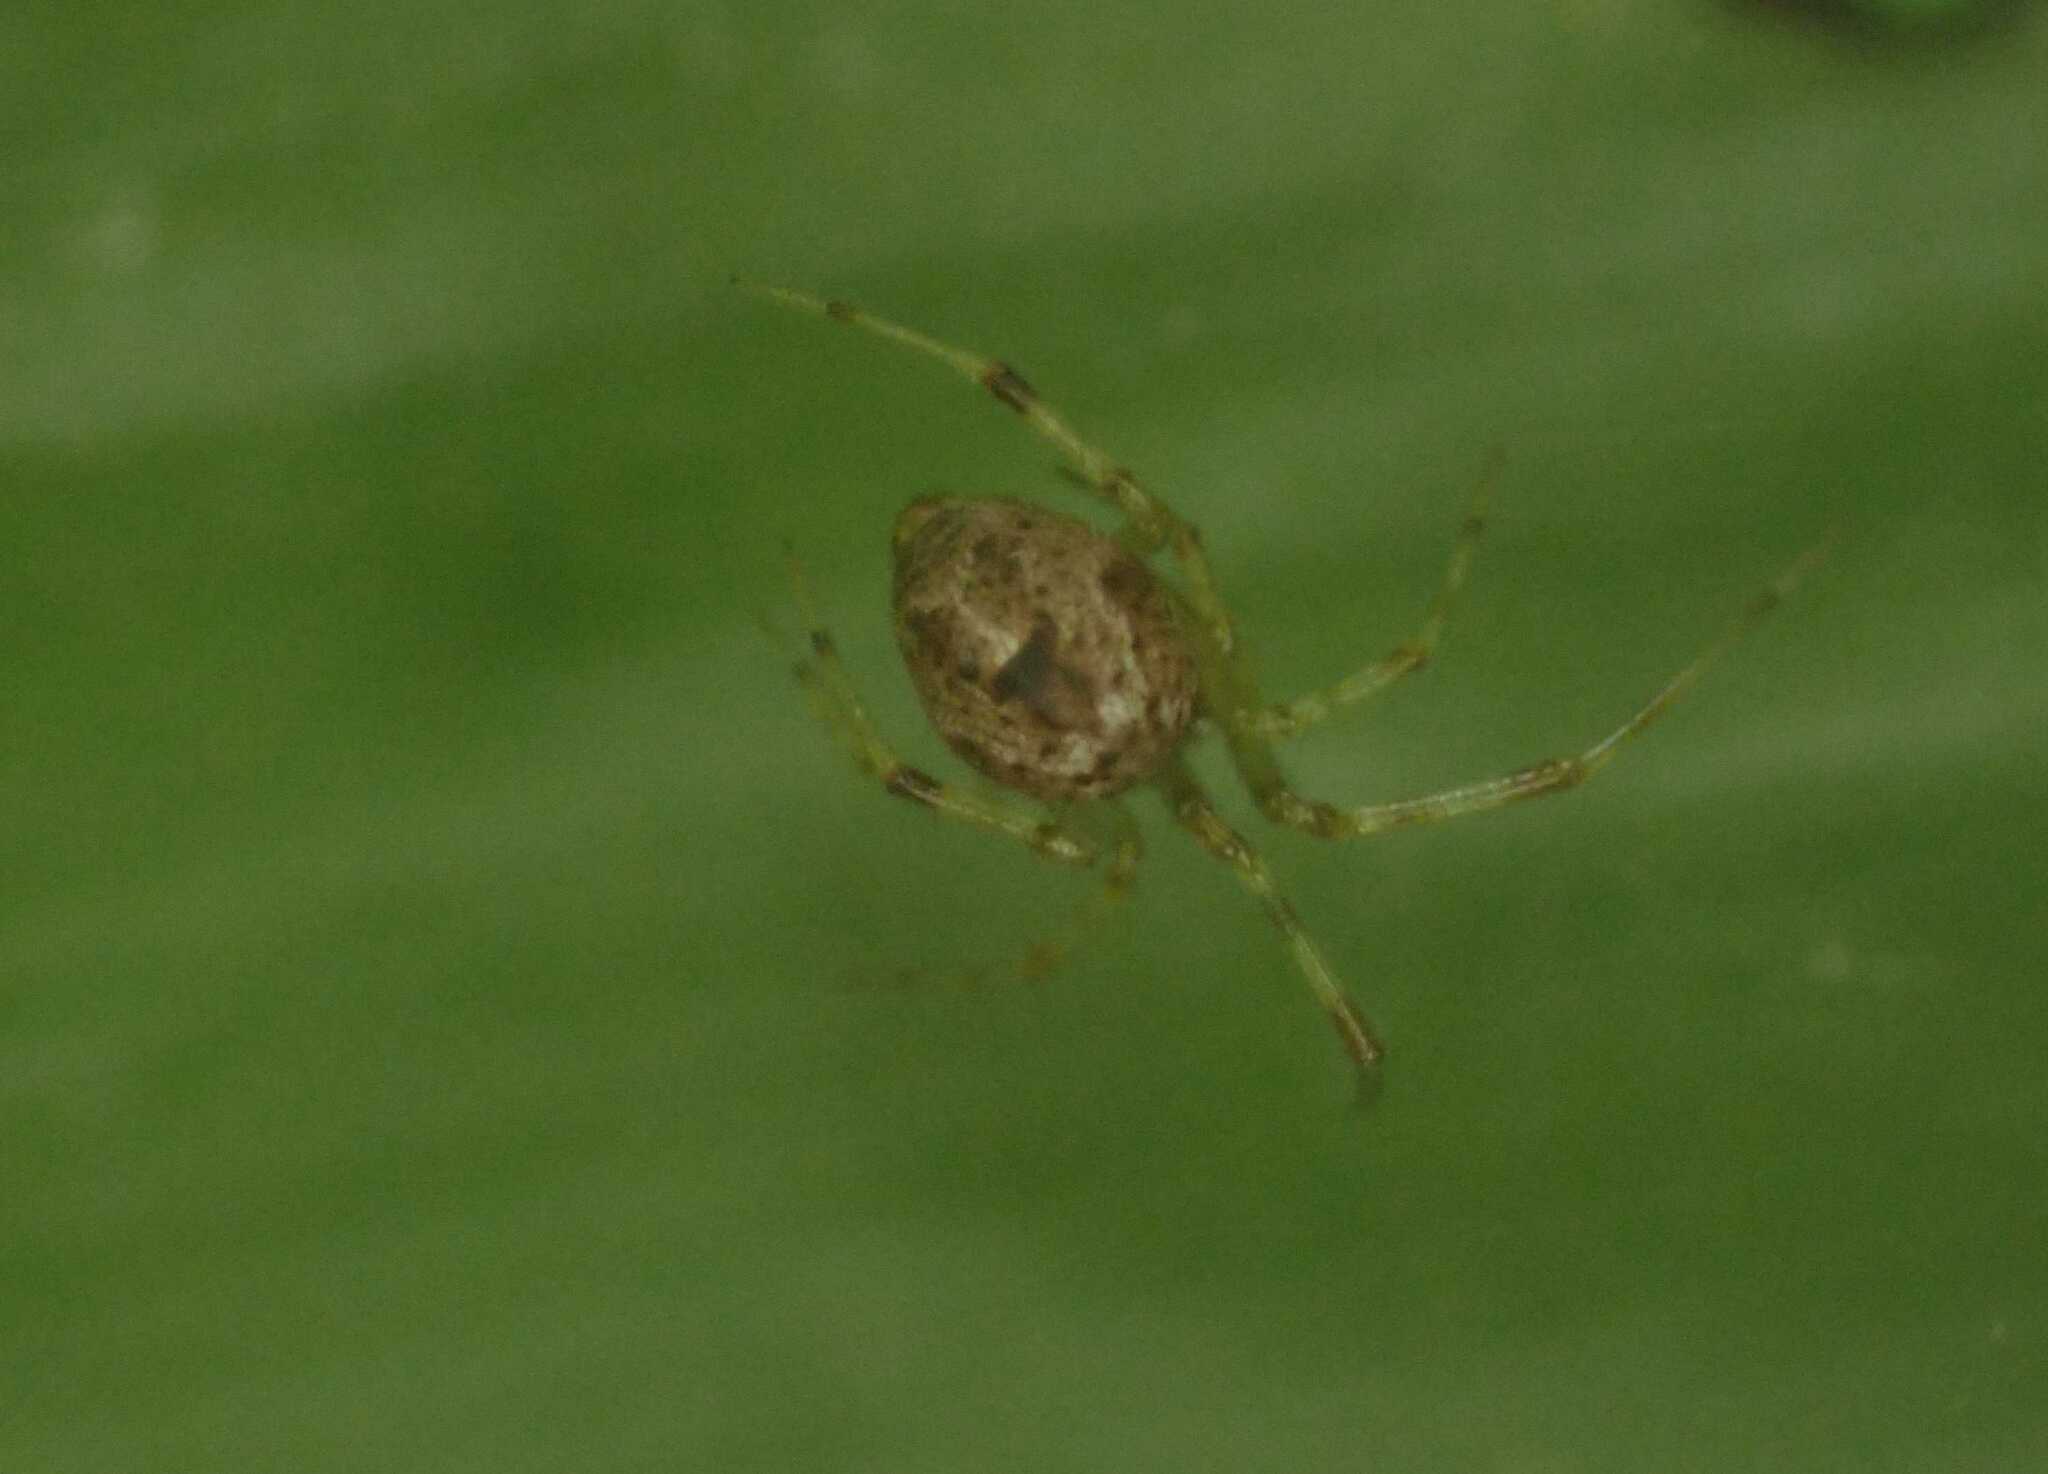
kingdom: Animalia
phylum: Arthropoda
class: Arachnida
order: Araneae
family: Theridiidae
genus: Parasteatoda
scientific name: Parasteatoda tepidariorum
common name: Common house spider
